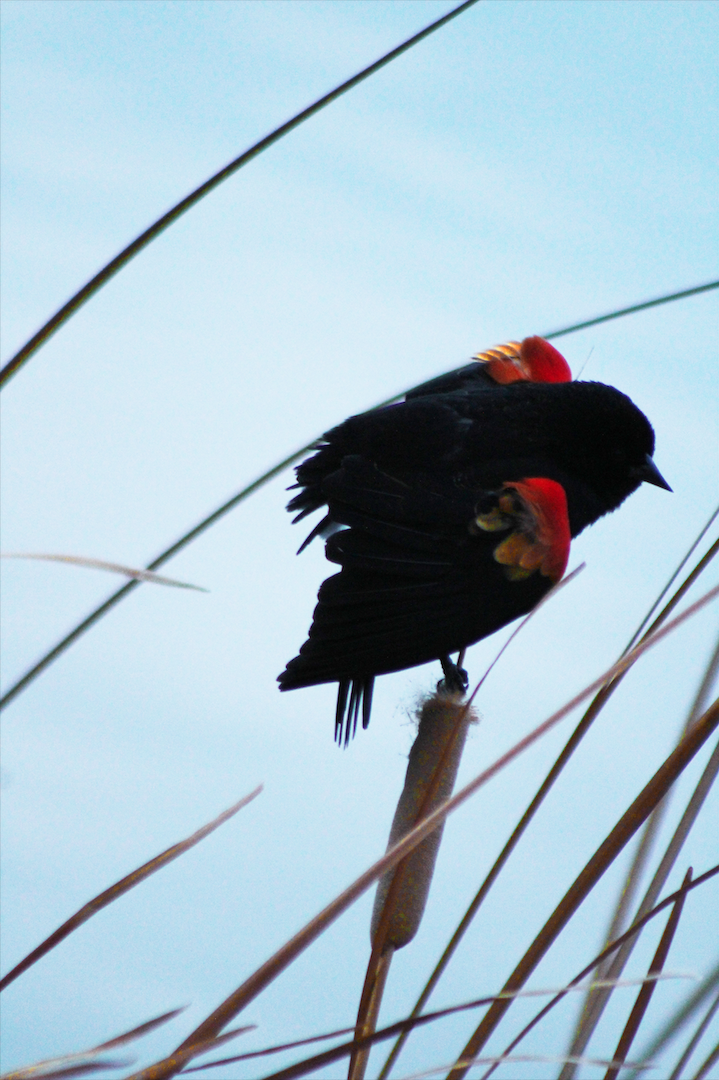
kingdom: Animalia
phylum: Chordata
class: Aves
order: Passeriformes
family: Icteridae
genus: Agelaius
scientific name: Agelaius phoeniceus
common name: Red-winged blackbird
